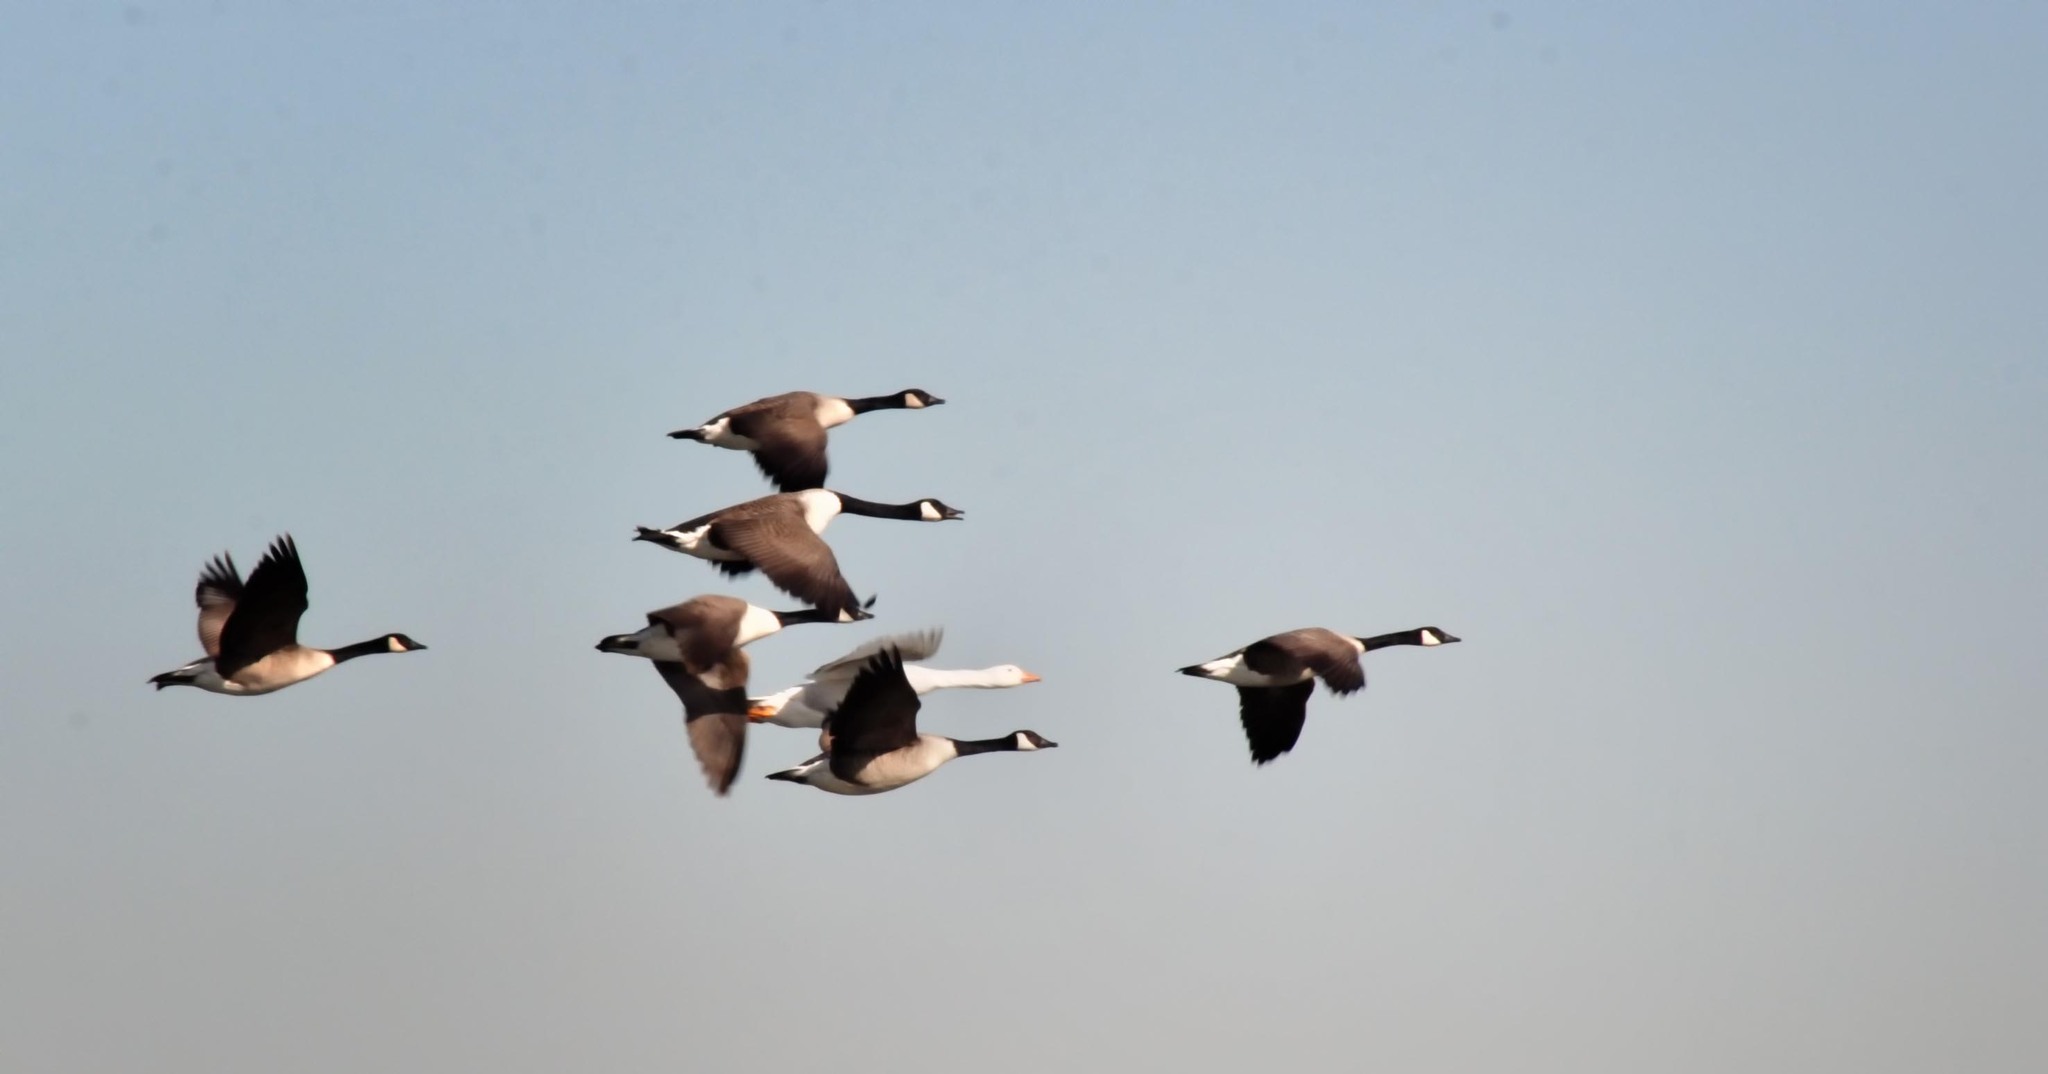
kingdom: Animalia
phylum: Chordata
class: Aves
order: Anseriformes
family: Anatidae
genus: Branta
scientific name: Branta canadensis
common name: Canada goose
